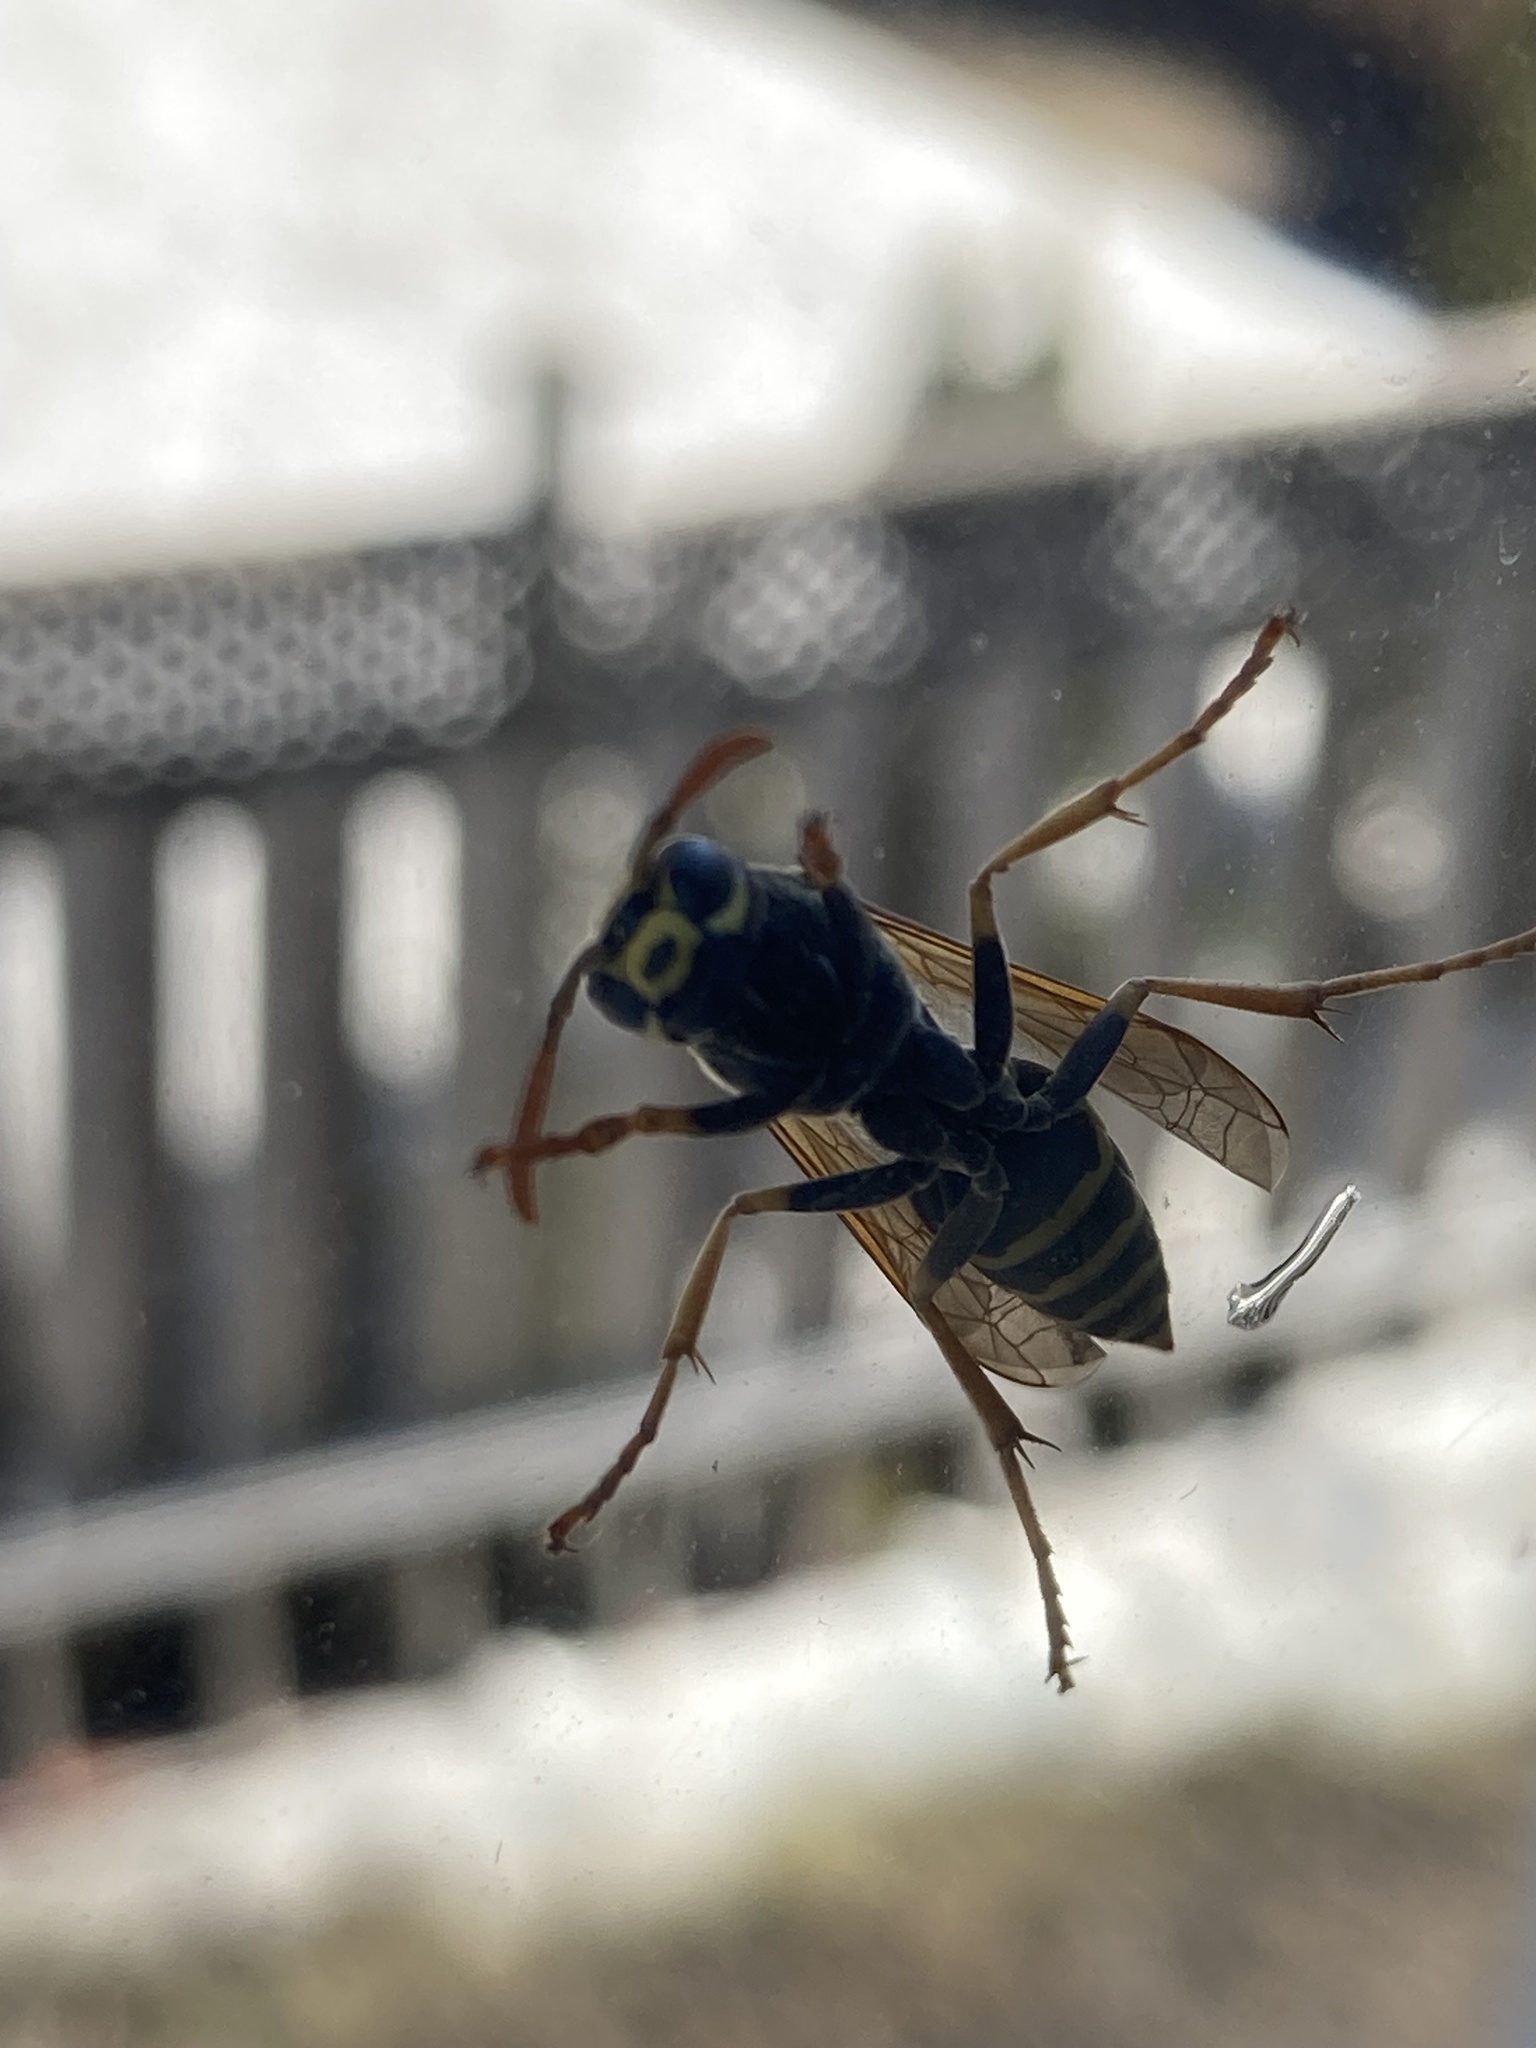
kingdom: Animalia
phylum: Arthropoda
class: Insecta
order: Hymenoptera
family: Eumenidae
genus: Polistes
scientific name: Polistes dominula
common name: Paper wasp
